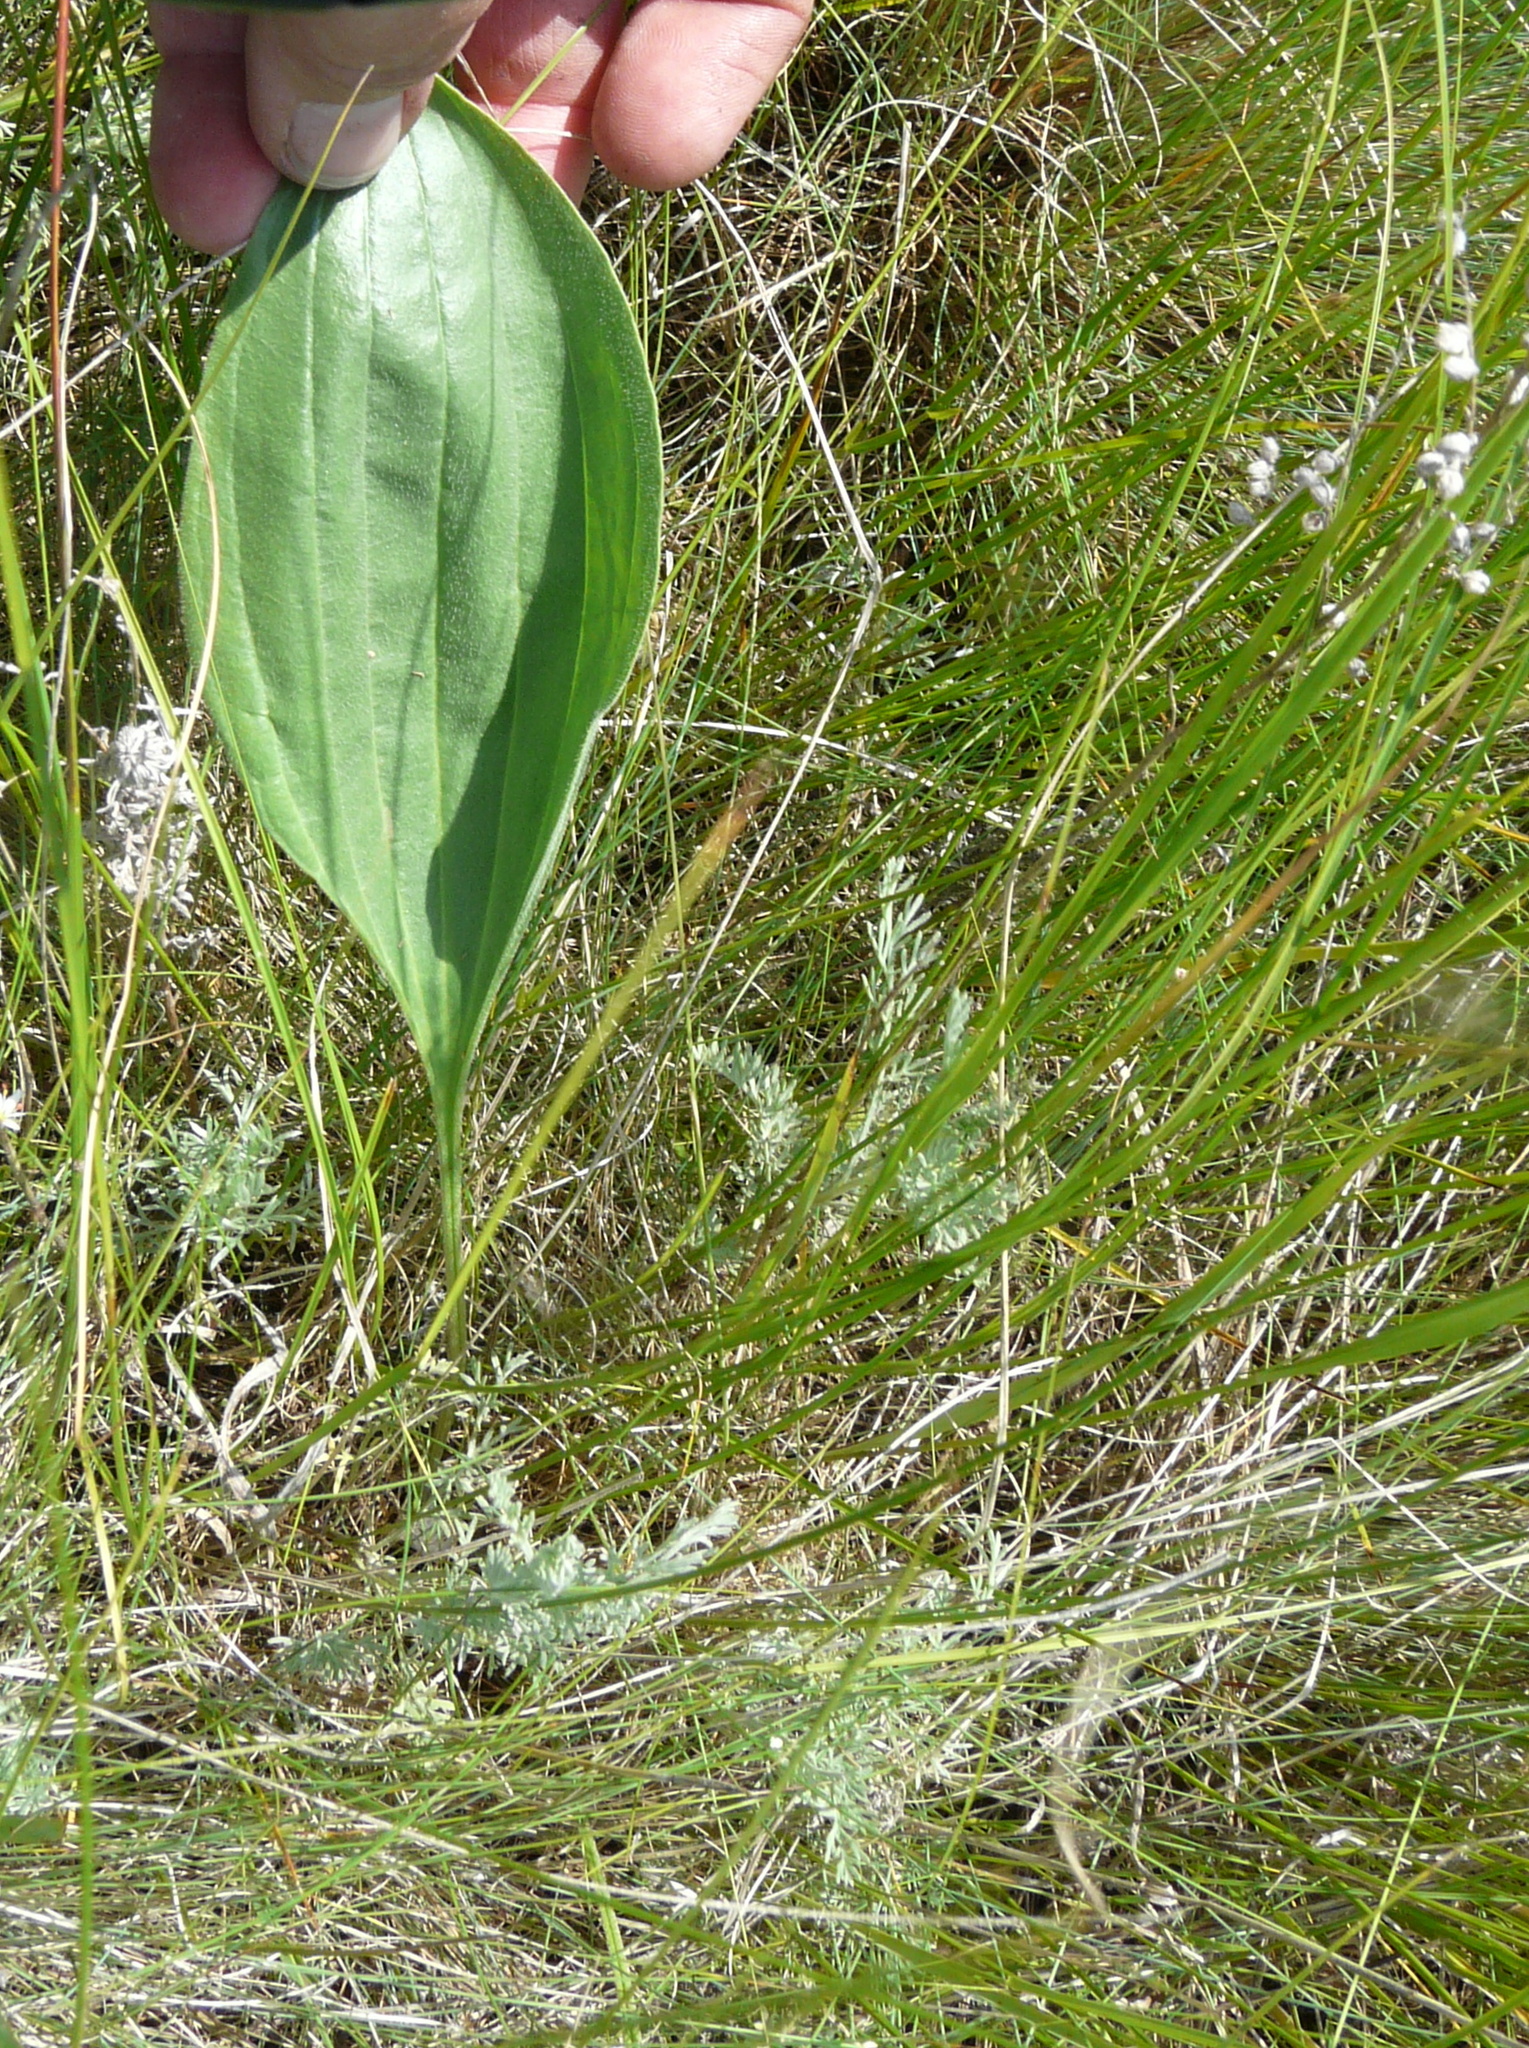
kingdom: Plantae
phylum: Tracheophyta
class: Magnoliopsida
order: Lamiales
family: Plantaginaceae
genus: Plantago
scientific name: Plantago maxima
